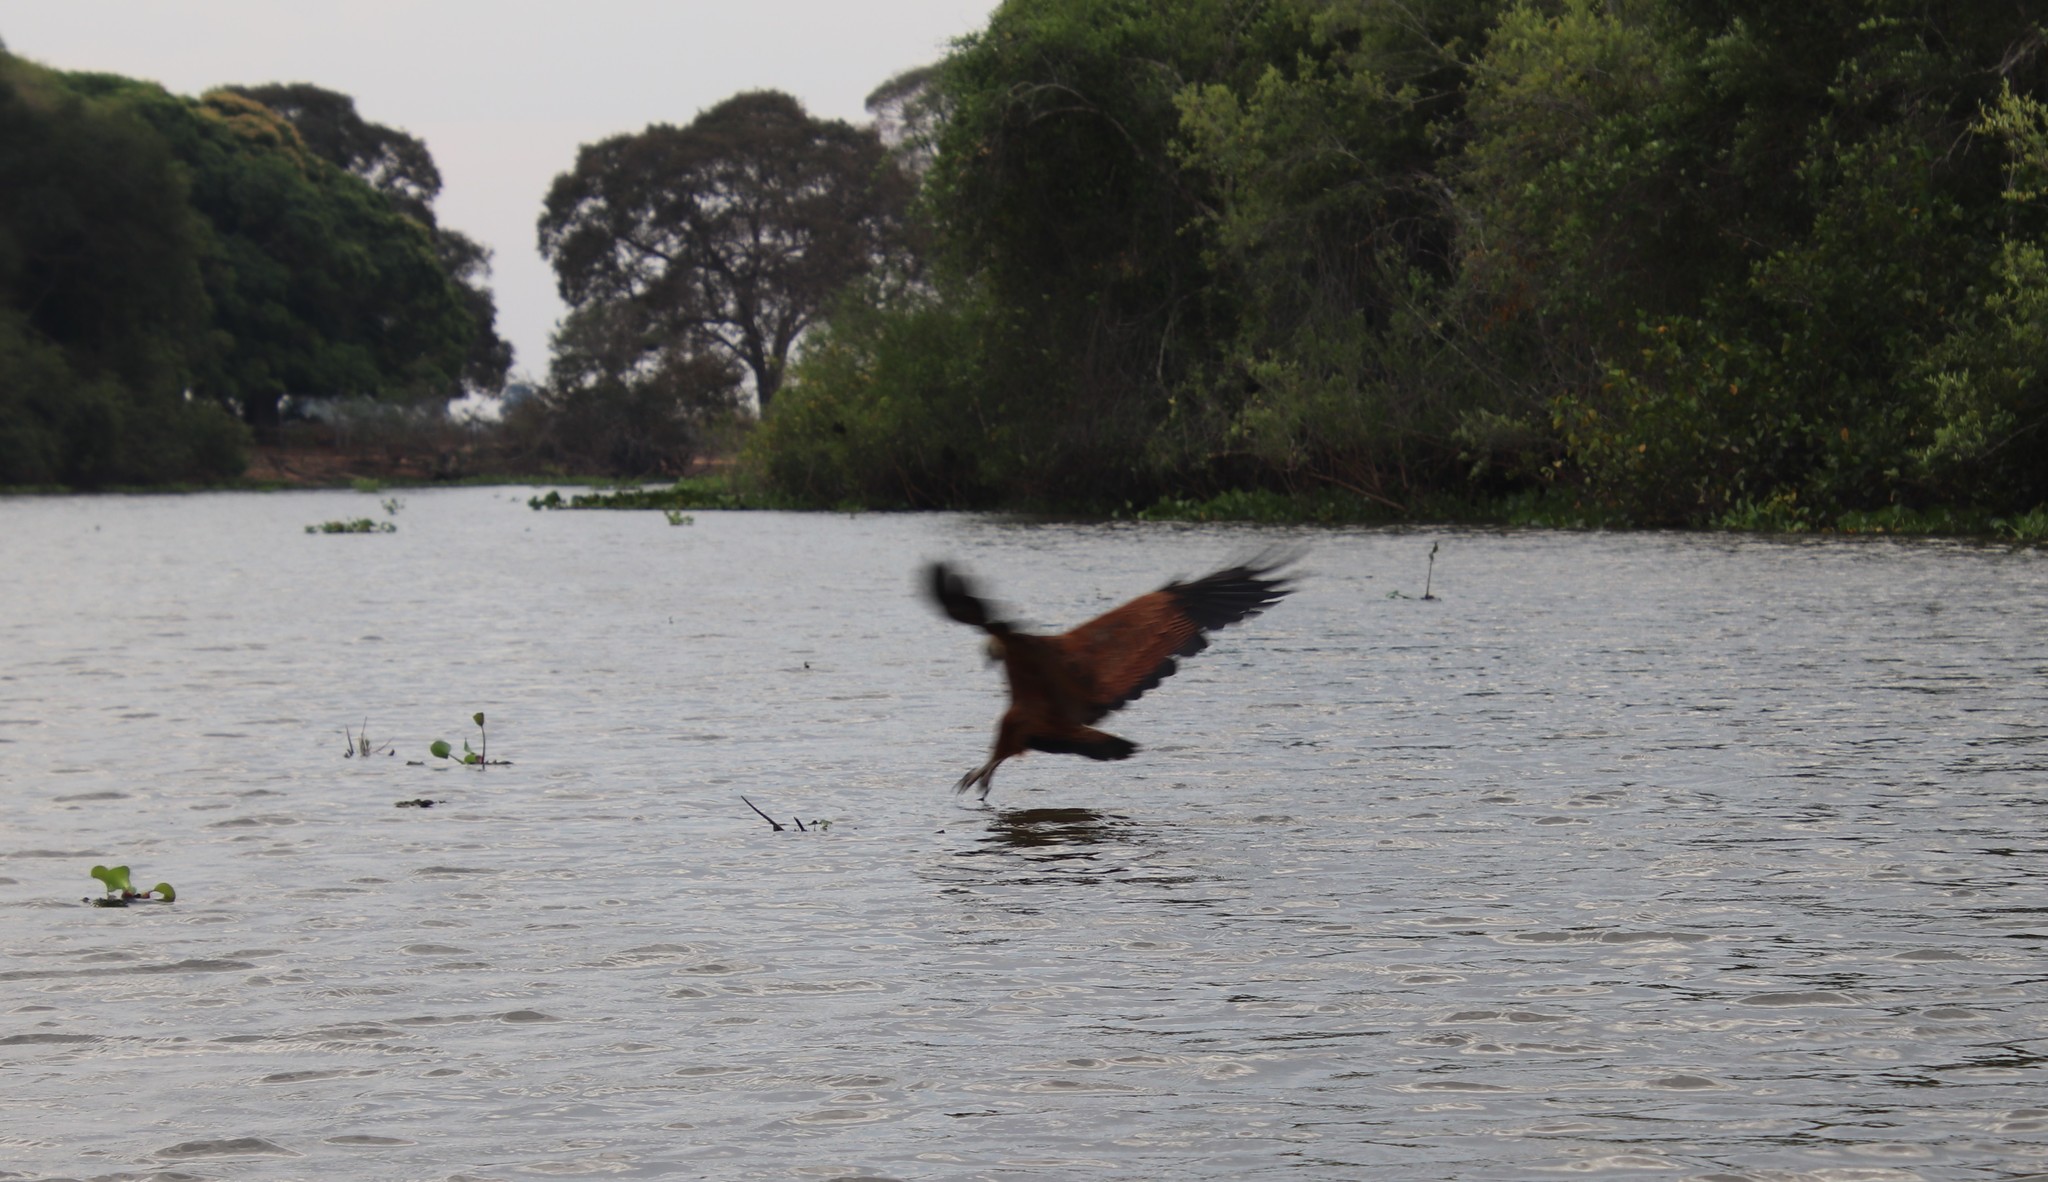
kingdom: Animalia
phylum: Chordata
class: Aves
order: Accipitriformes
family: Accipitridae
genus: Busarellus
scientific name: Busarellus nigricollis
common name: Black-collared hawk
